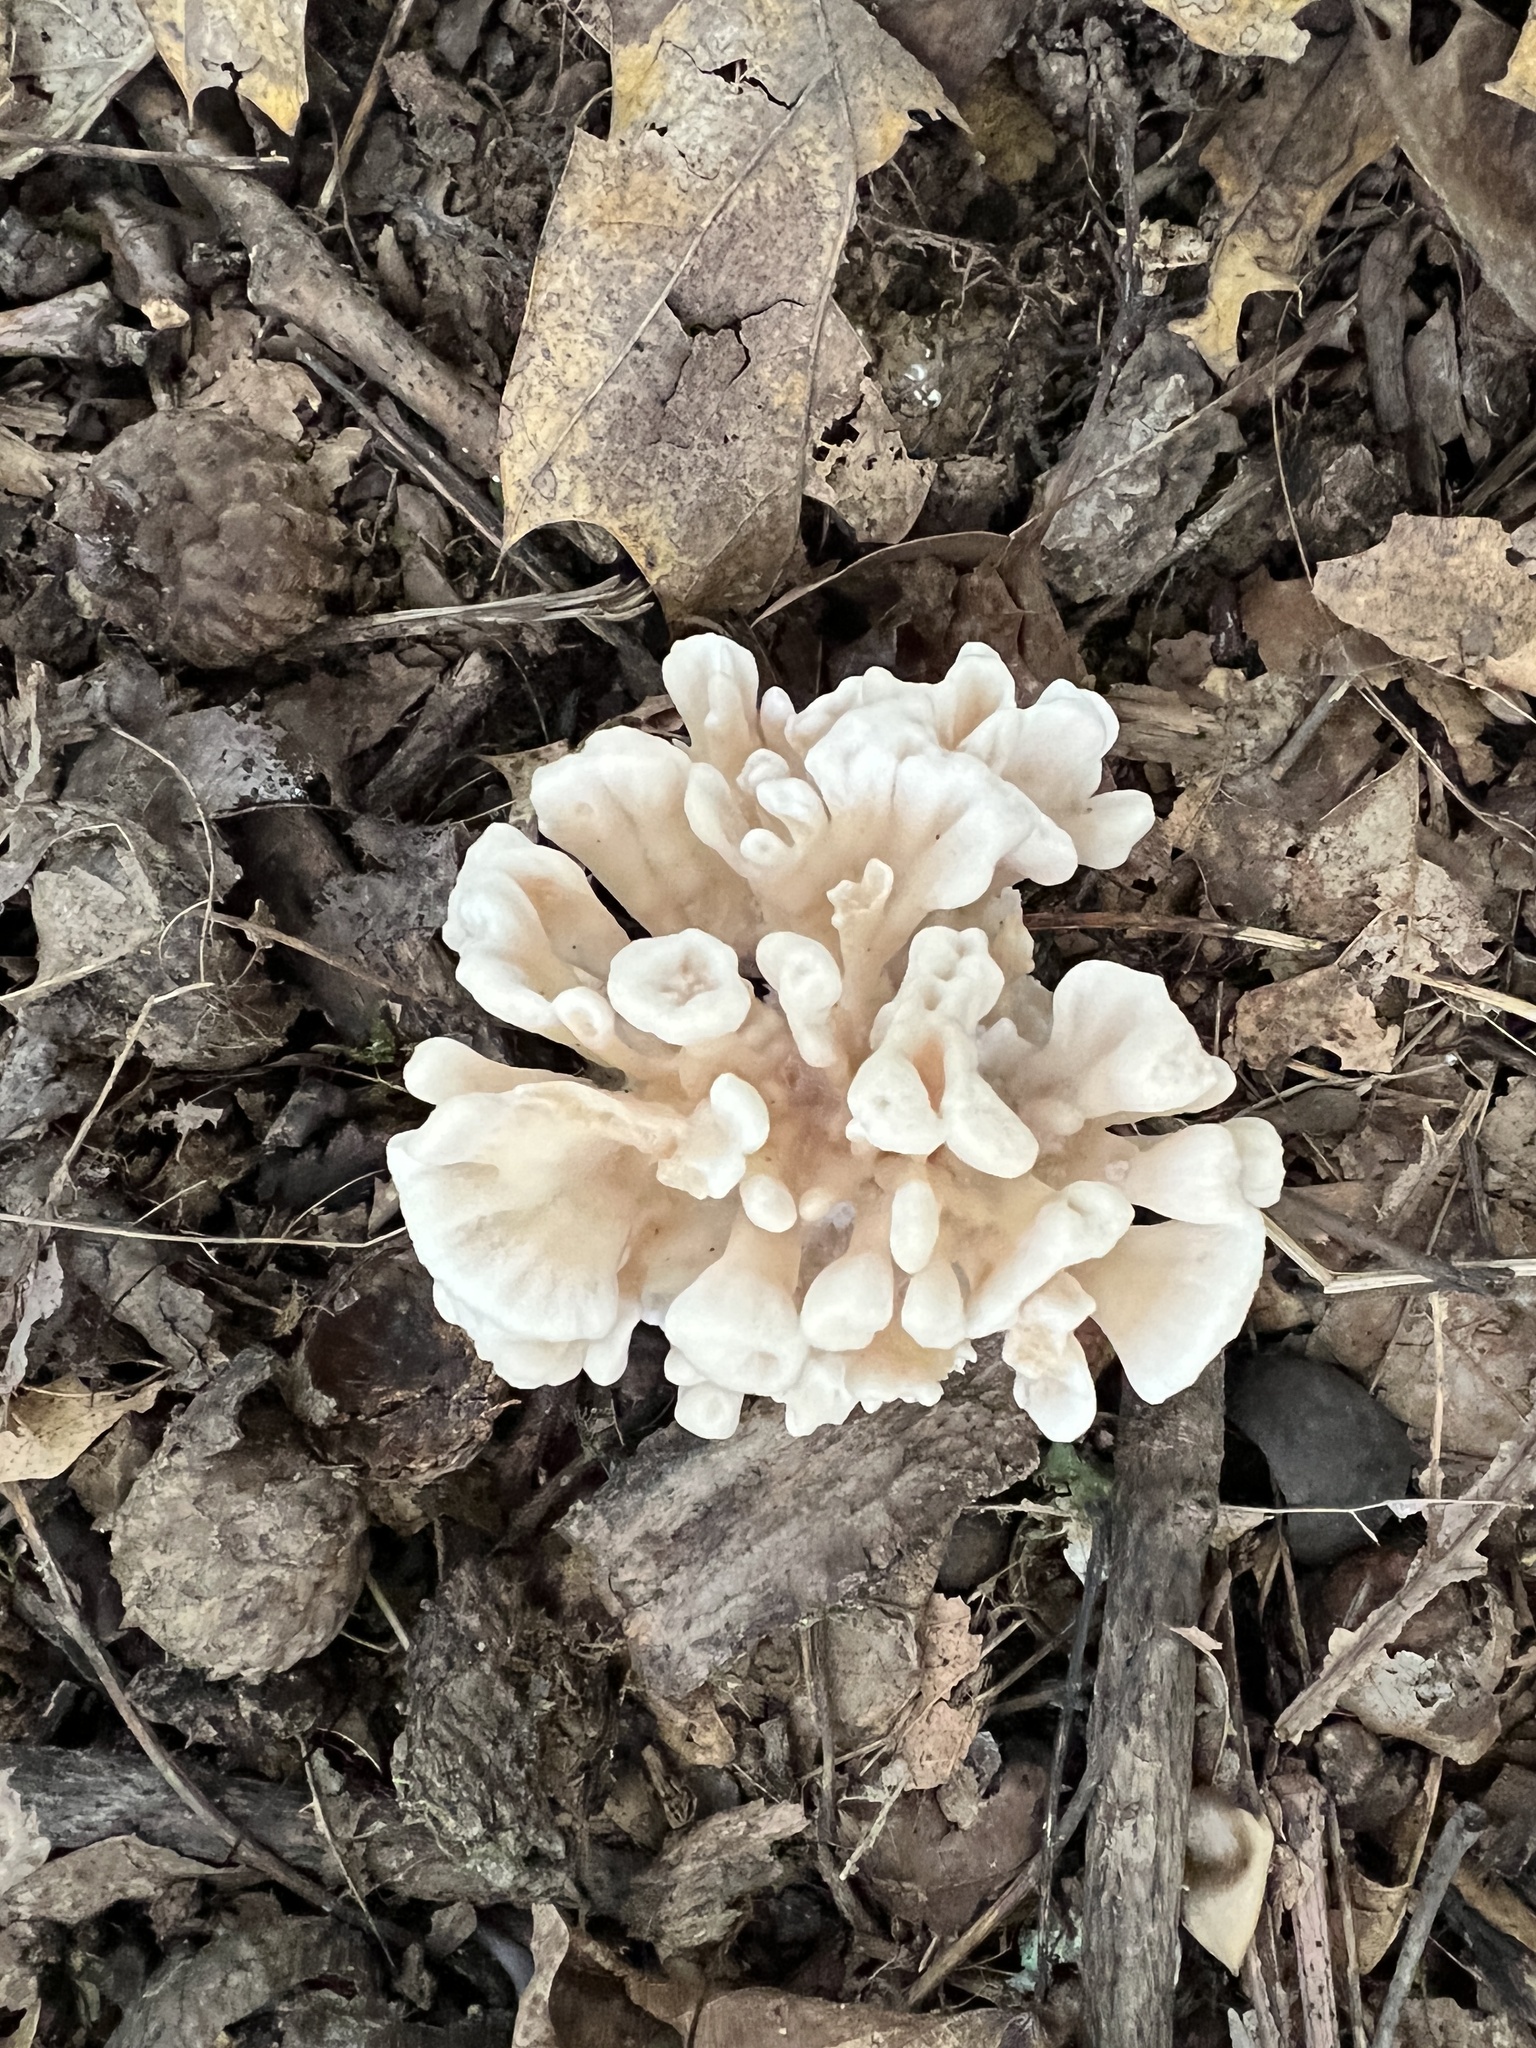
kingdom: Fungi
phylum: Basidiomycota
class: Agaricomycetes
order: Polyporales
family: Sparassidaceae
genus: Sparassis
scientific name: Sparassis spathulata
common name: Eastern cauliflower mushroom
